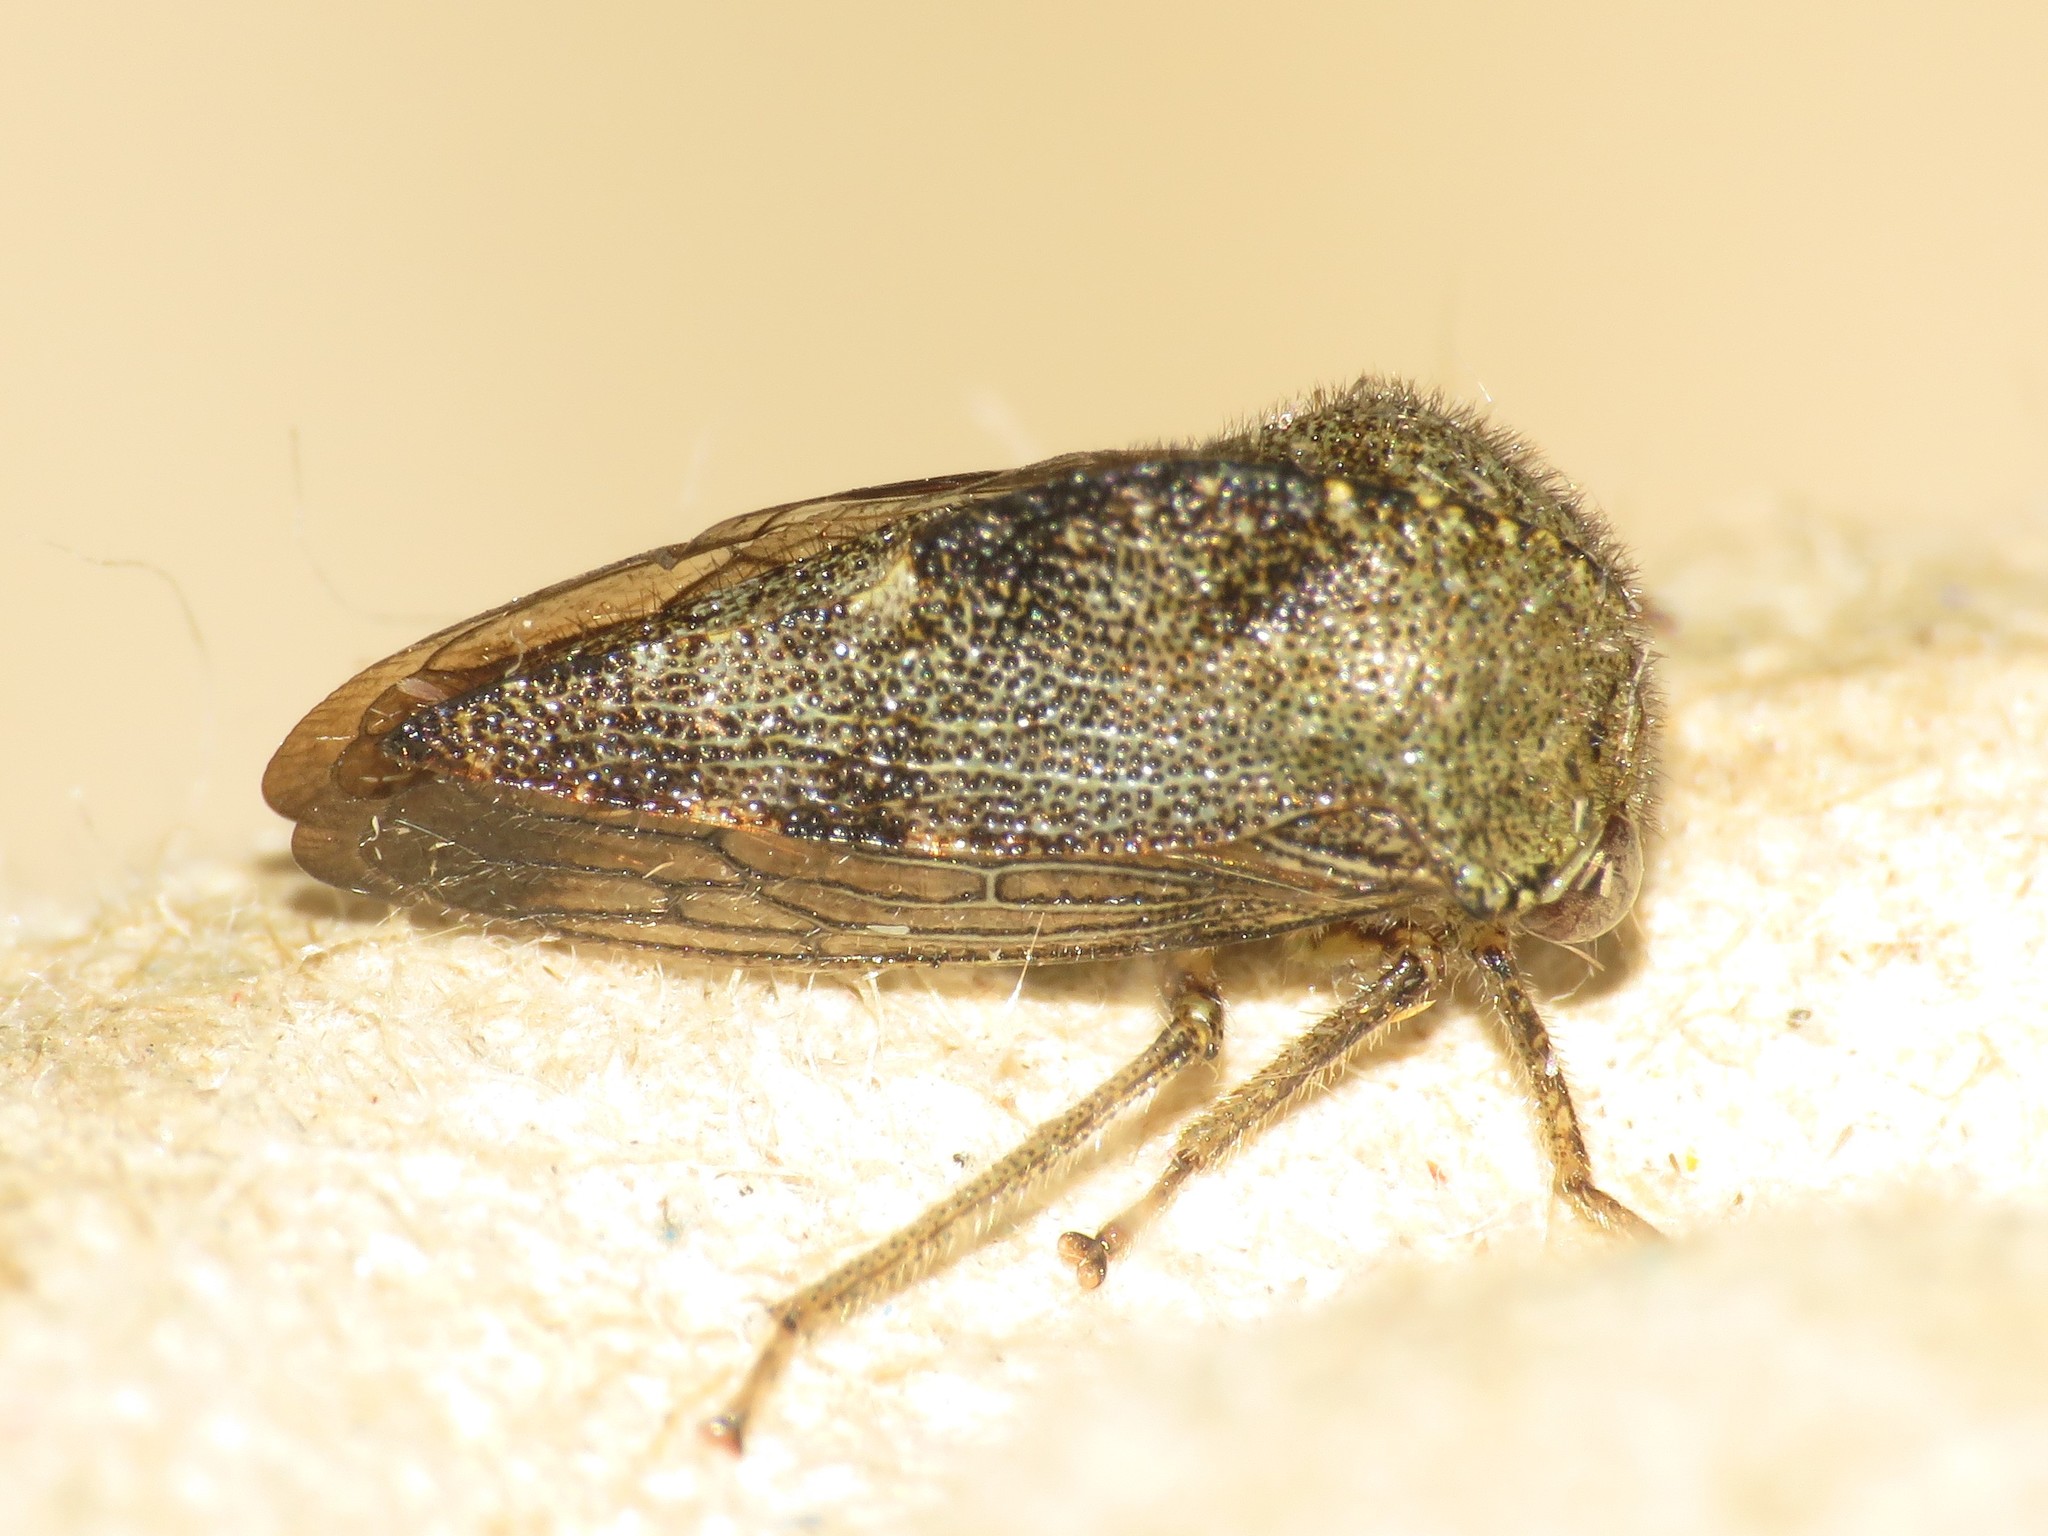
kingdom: Animalia
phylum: Arthropoda
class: Insecta
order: Hemiptera
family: Membracidae
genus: Telamona
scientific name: Telamona reclivata
